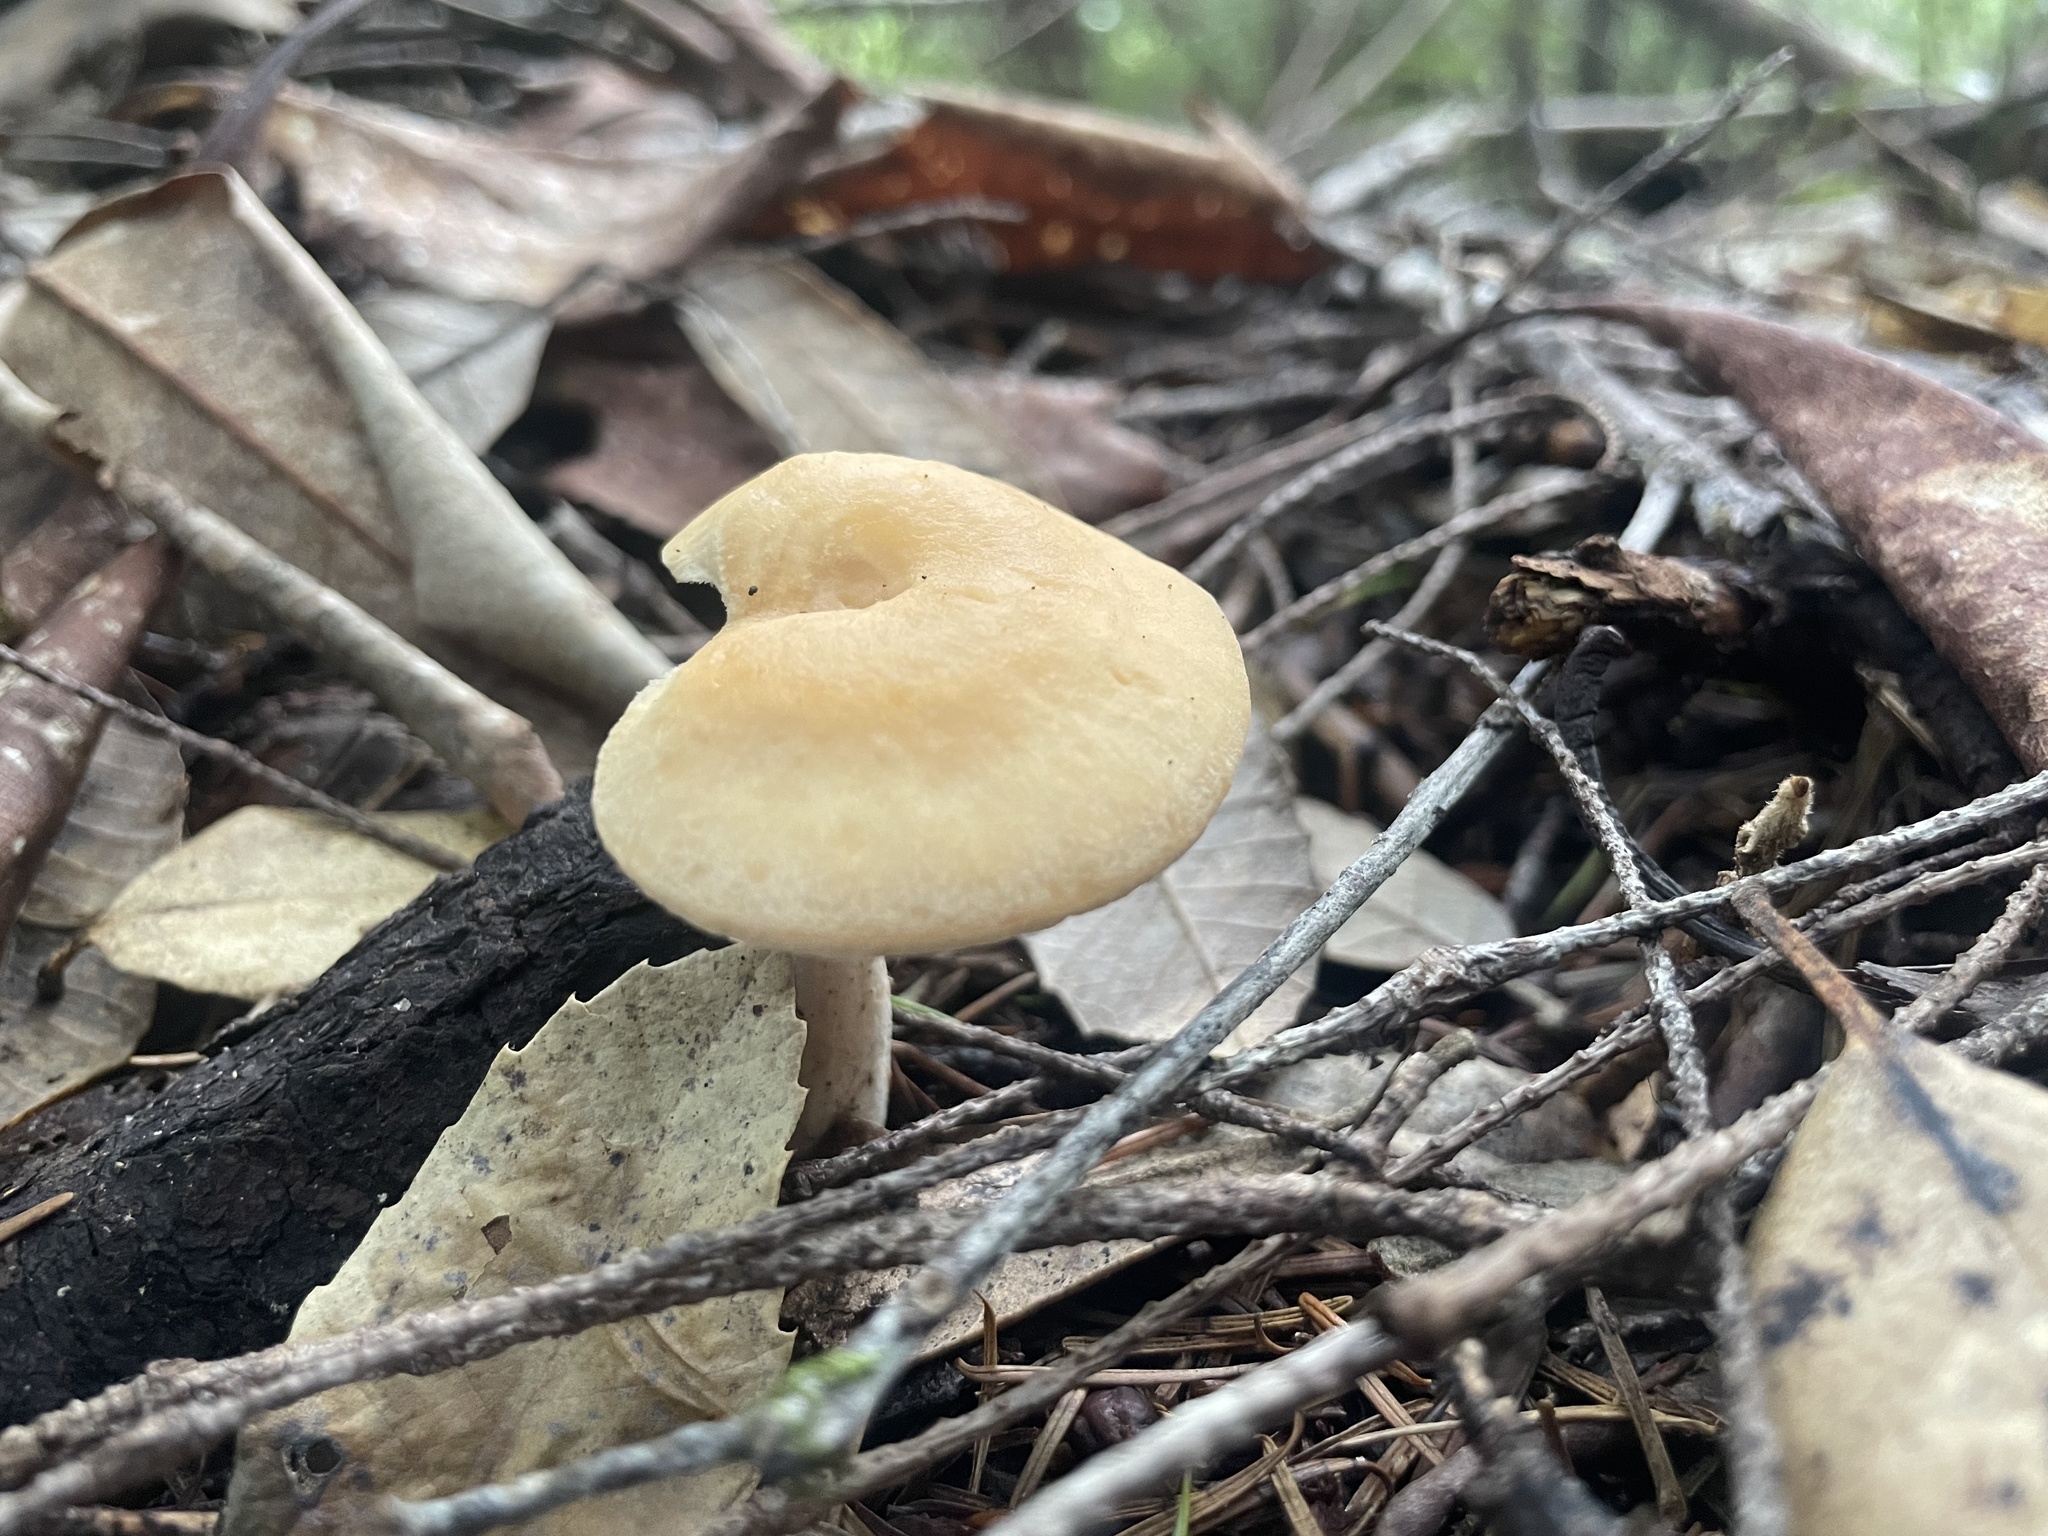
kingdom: Fungi
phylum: Basidiomycota
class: Agaricomycetes
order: Cantharellales
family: Hydnaceae
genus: Hydnum
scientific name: Hydnum oregonense
